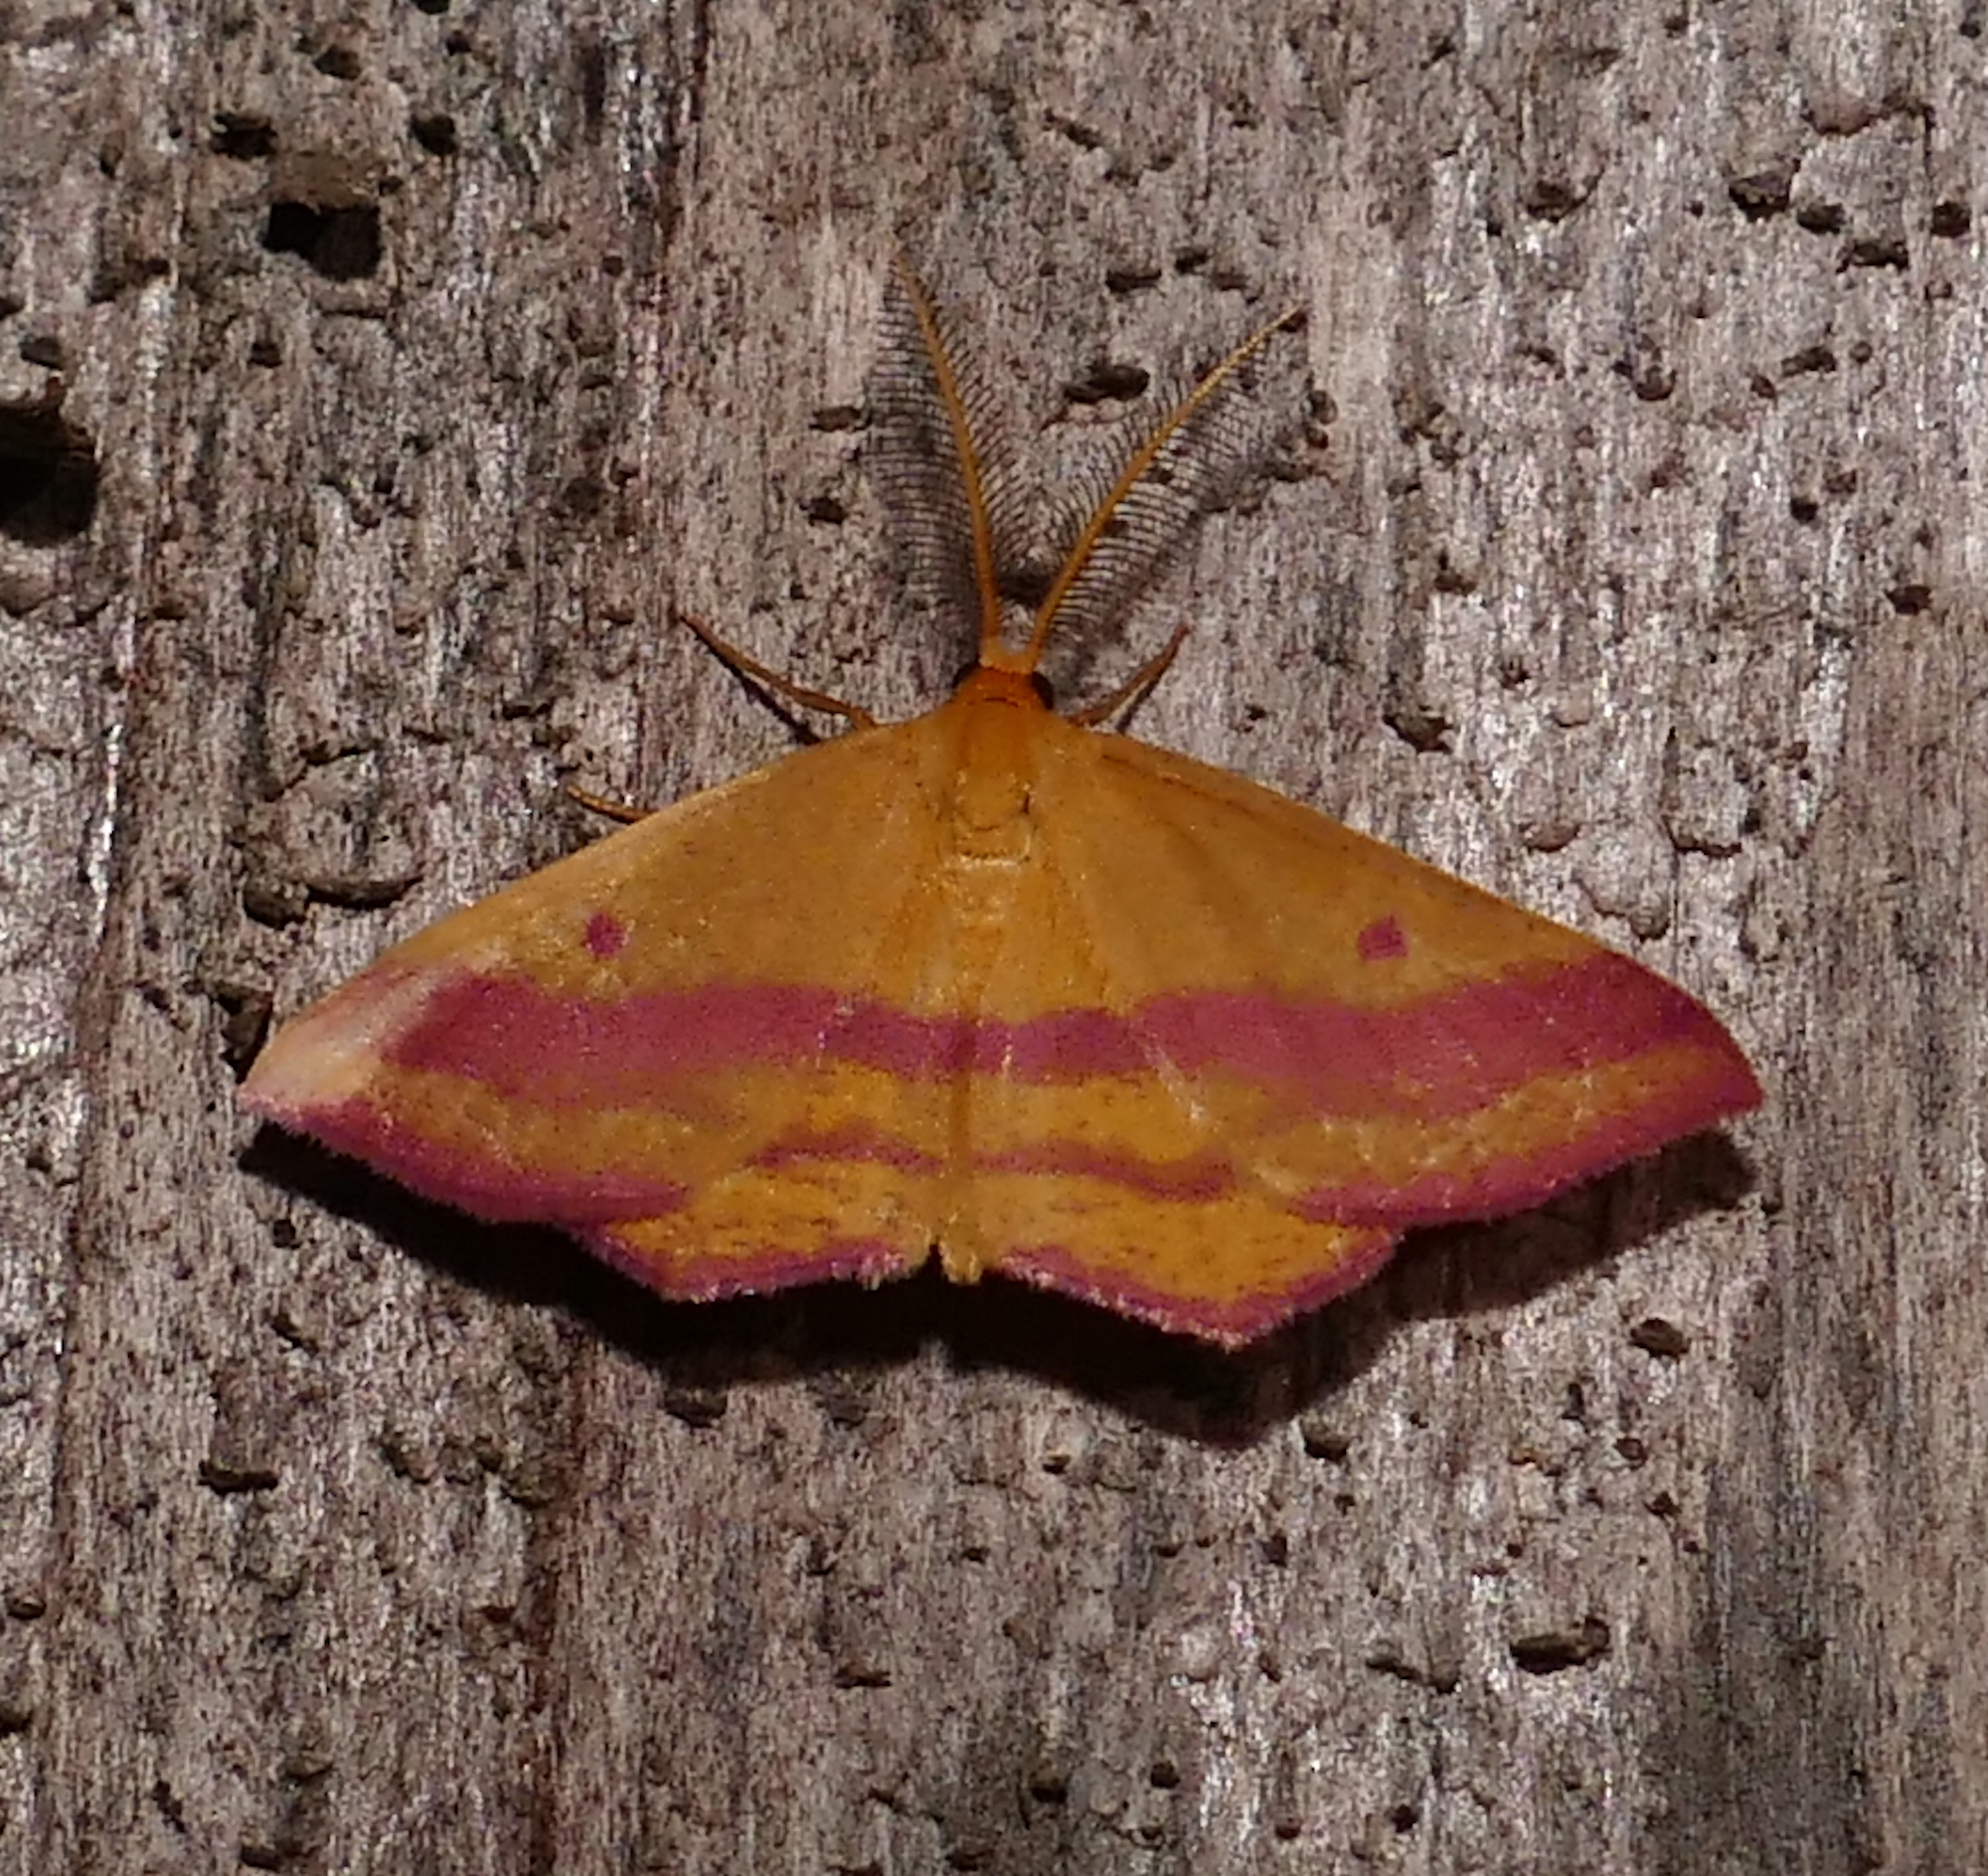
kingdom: Animalia
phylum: Arthropoda
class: Insecta
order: Lepidoptera
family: Geometridae
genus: Haematopis
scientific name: Haematopis grataria
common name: Chickweed geometer
